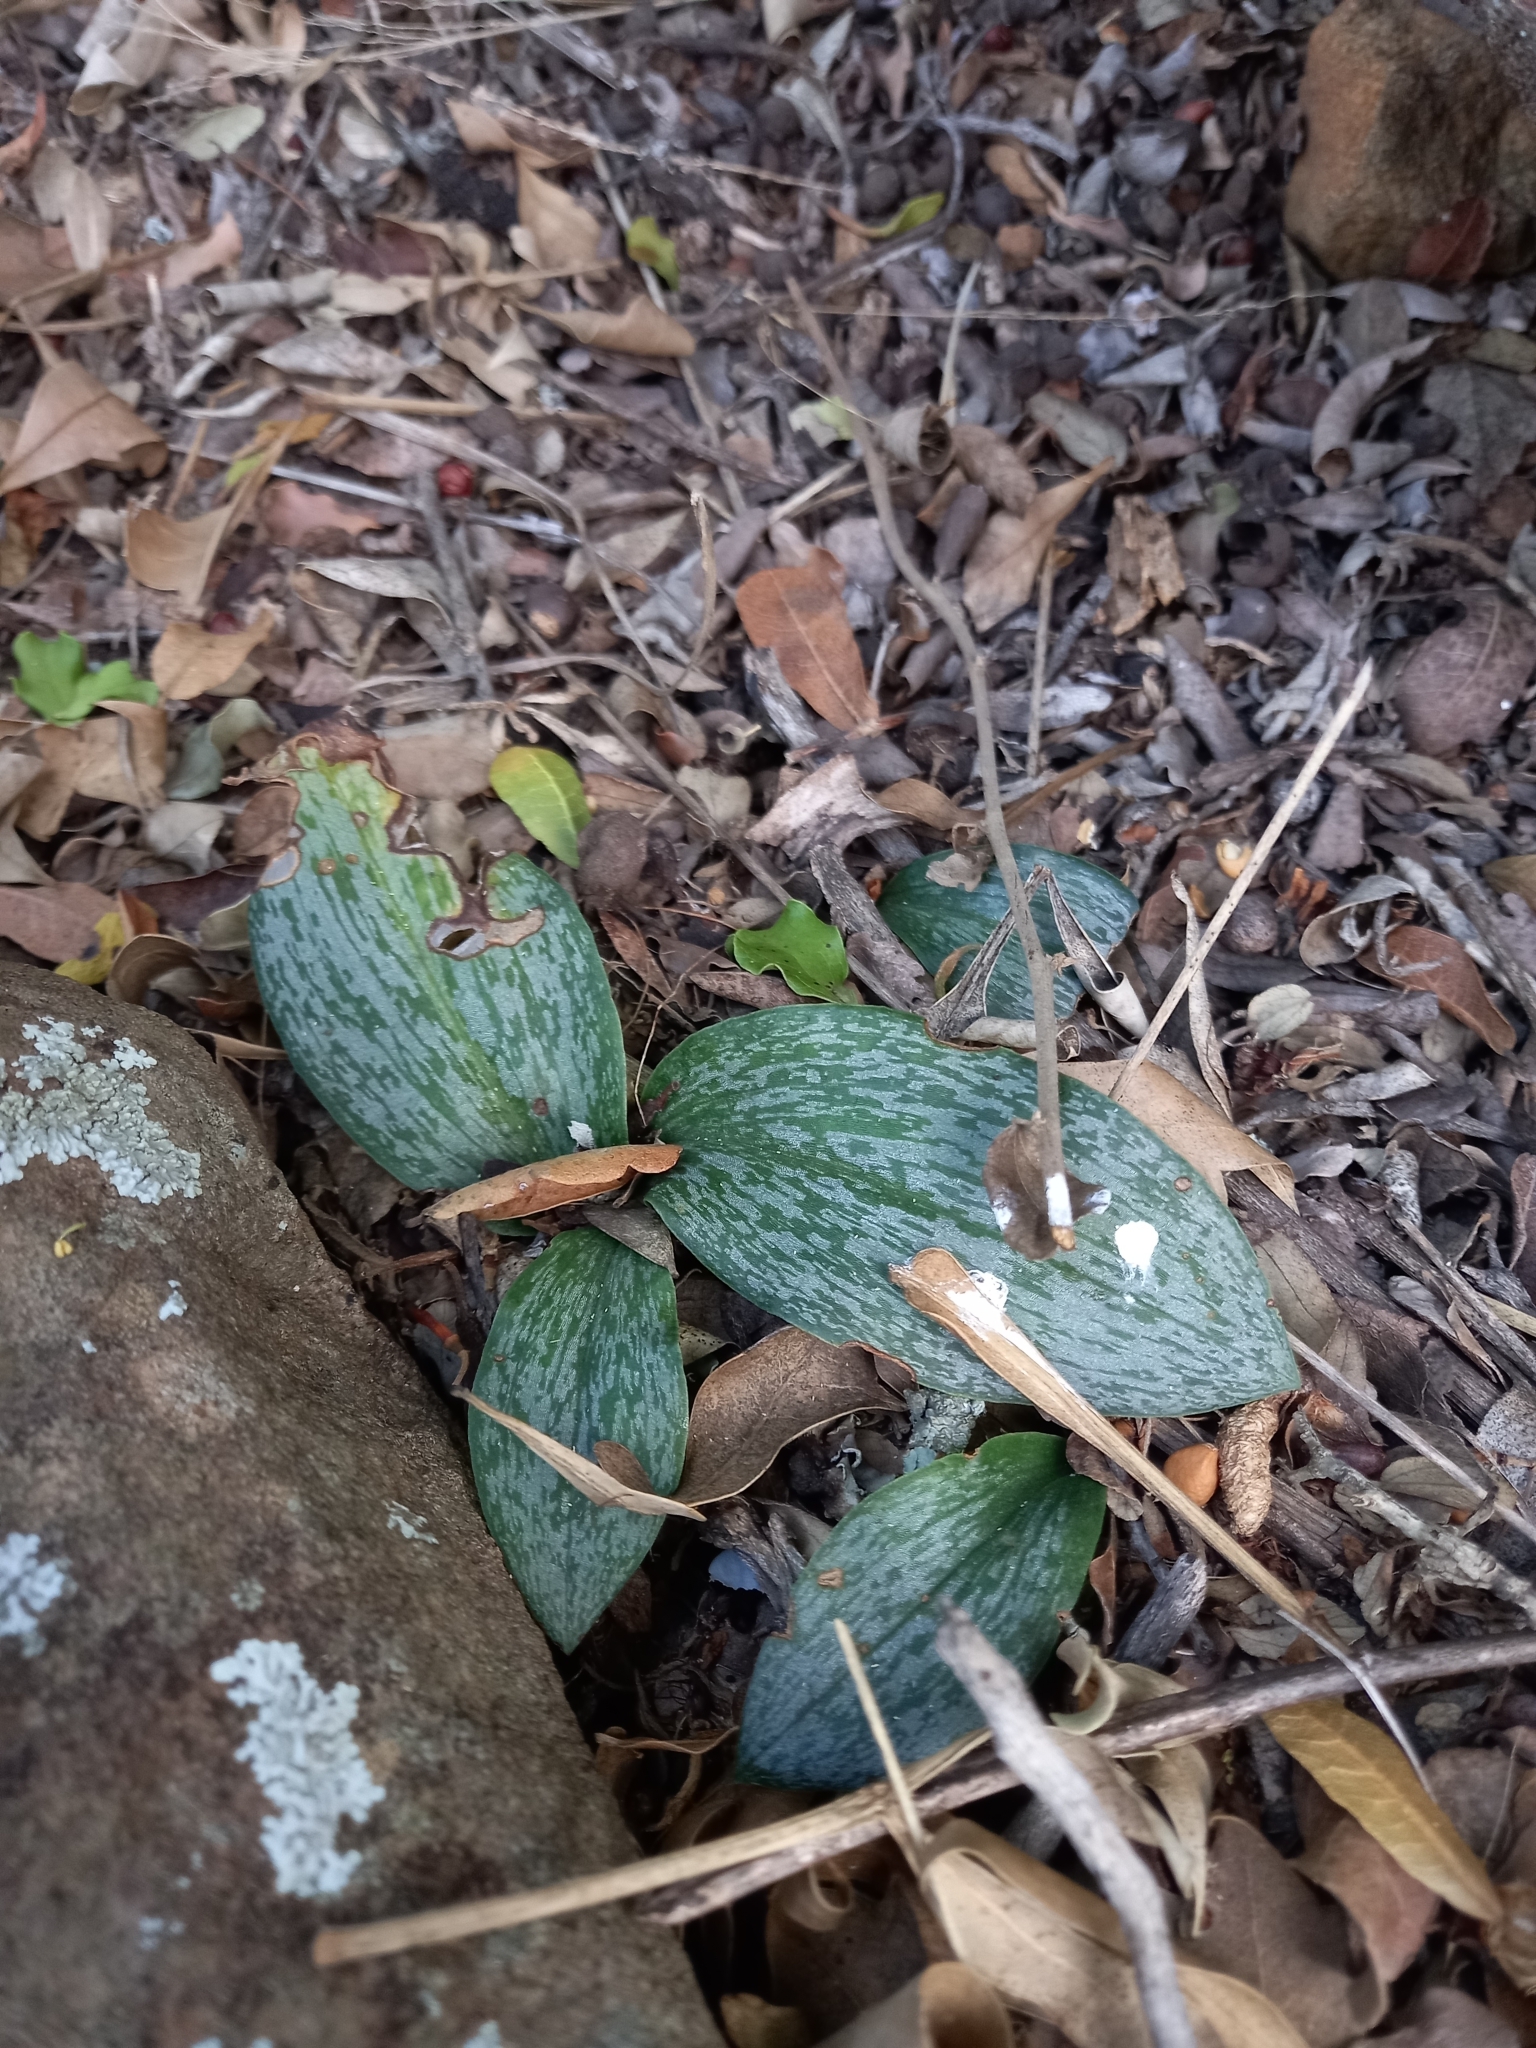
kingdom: Plantae
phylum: Tracheophyta
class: Liliopsida
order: Asparagales
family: Orchidaceae
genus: Habenaria
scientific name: Habenaria arenaria
